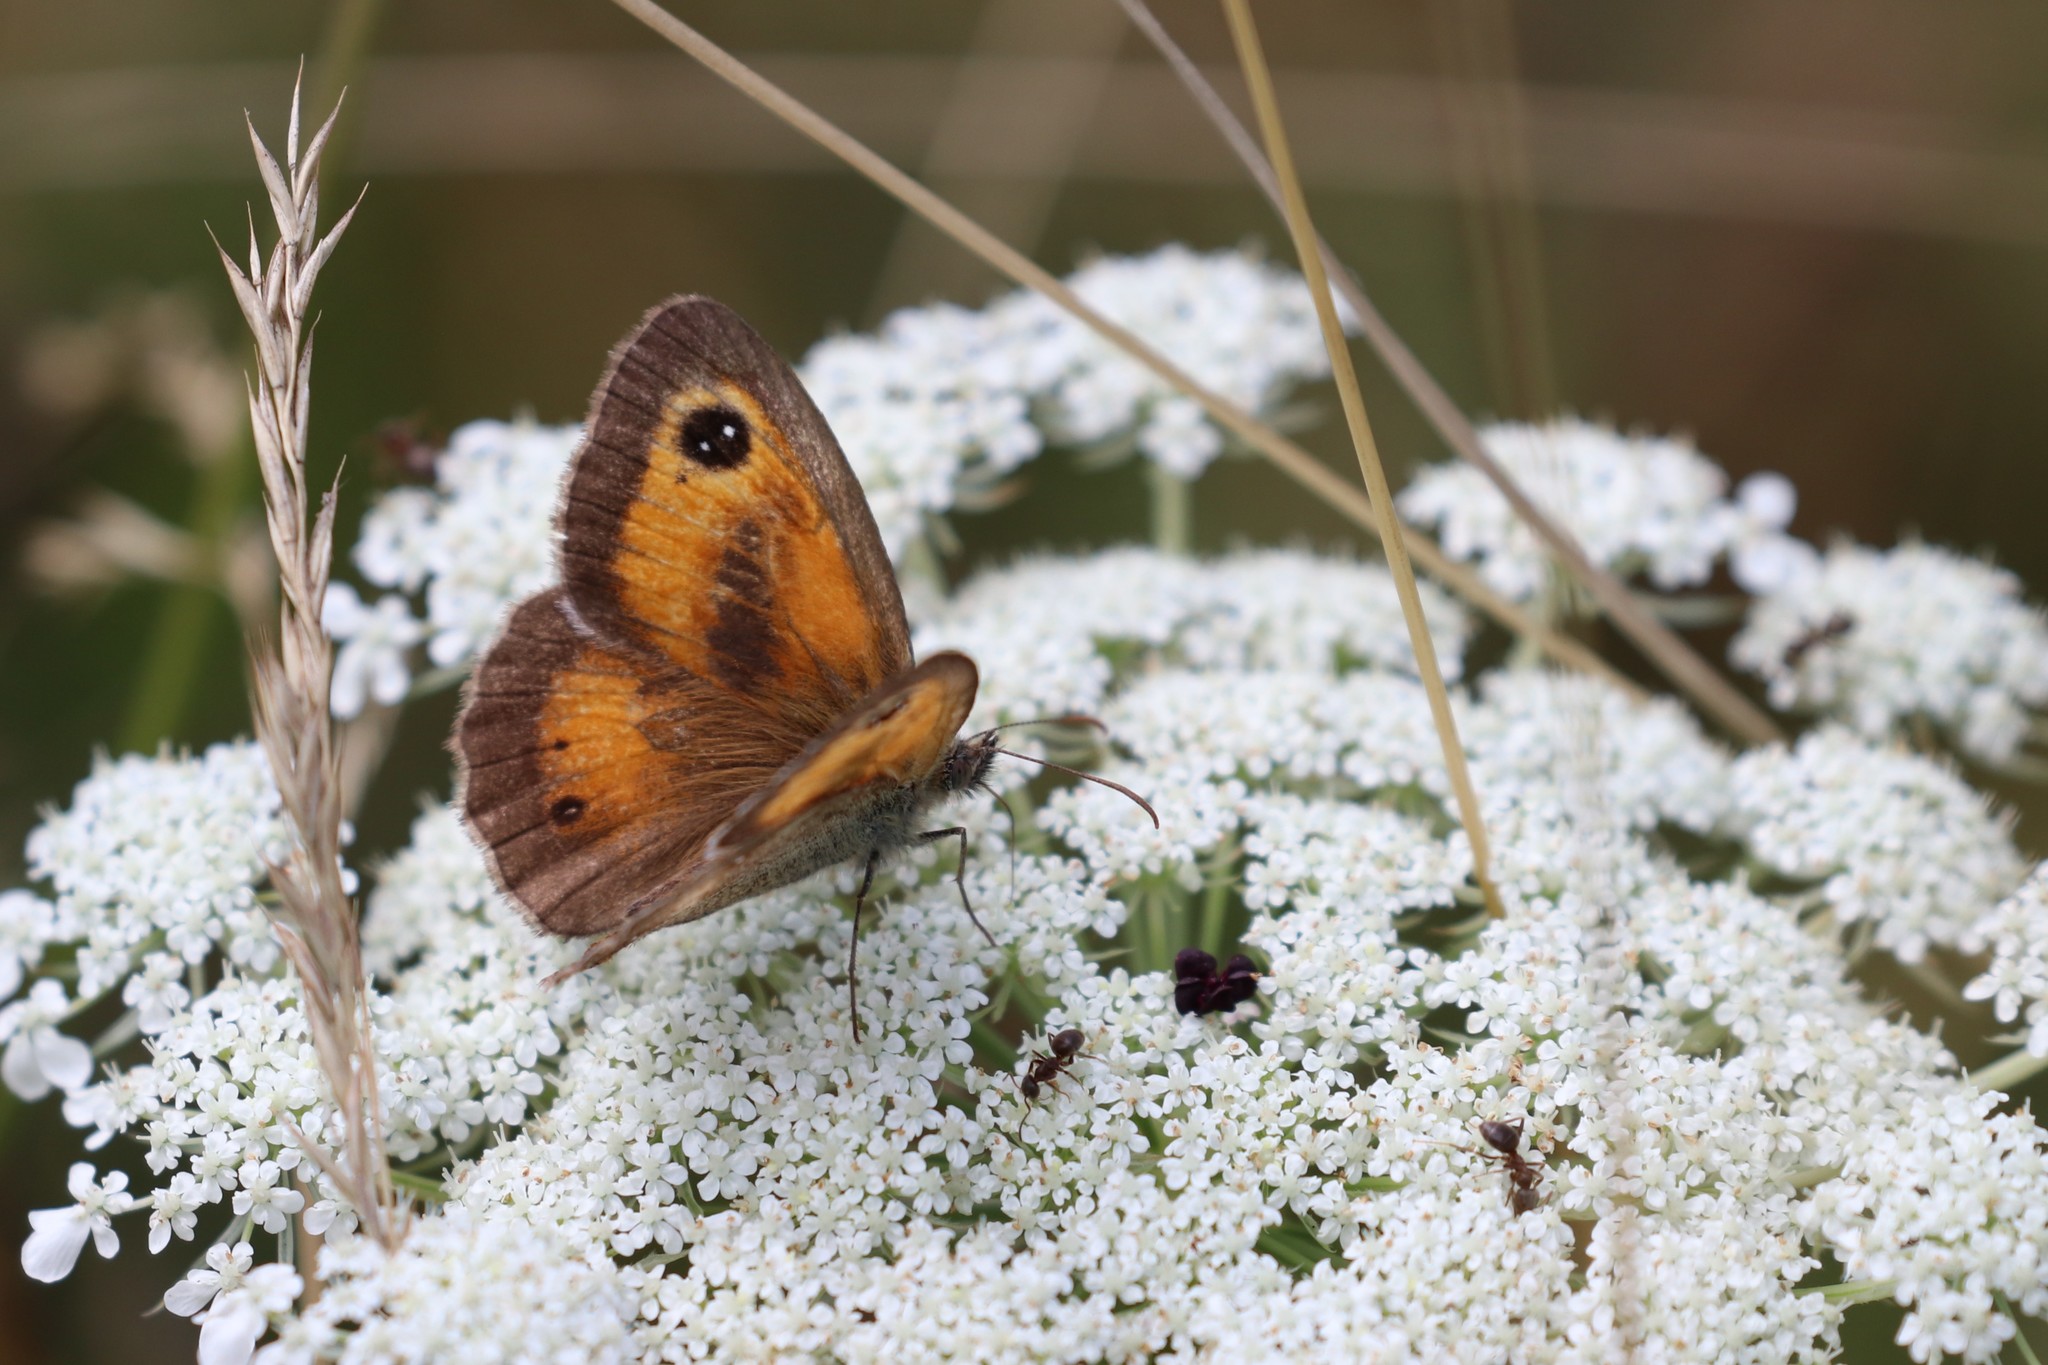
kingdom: Animalia
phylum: Arthropoda
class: Insecta
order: Lepidoptera
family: Nymphalidae
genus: Pyronia
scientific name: Pyronia tithonus
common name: Gatekeeper
